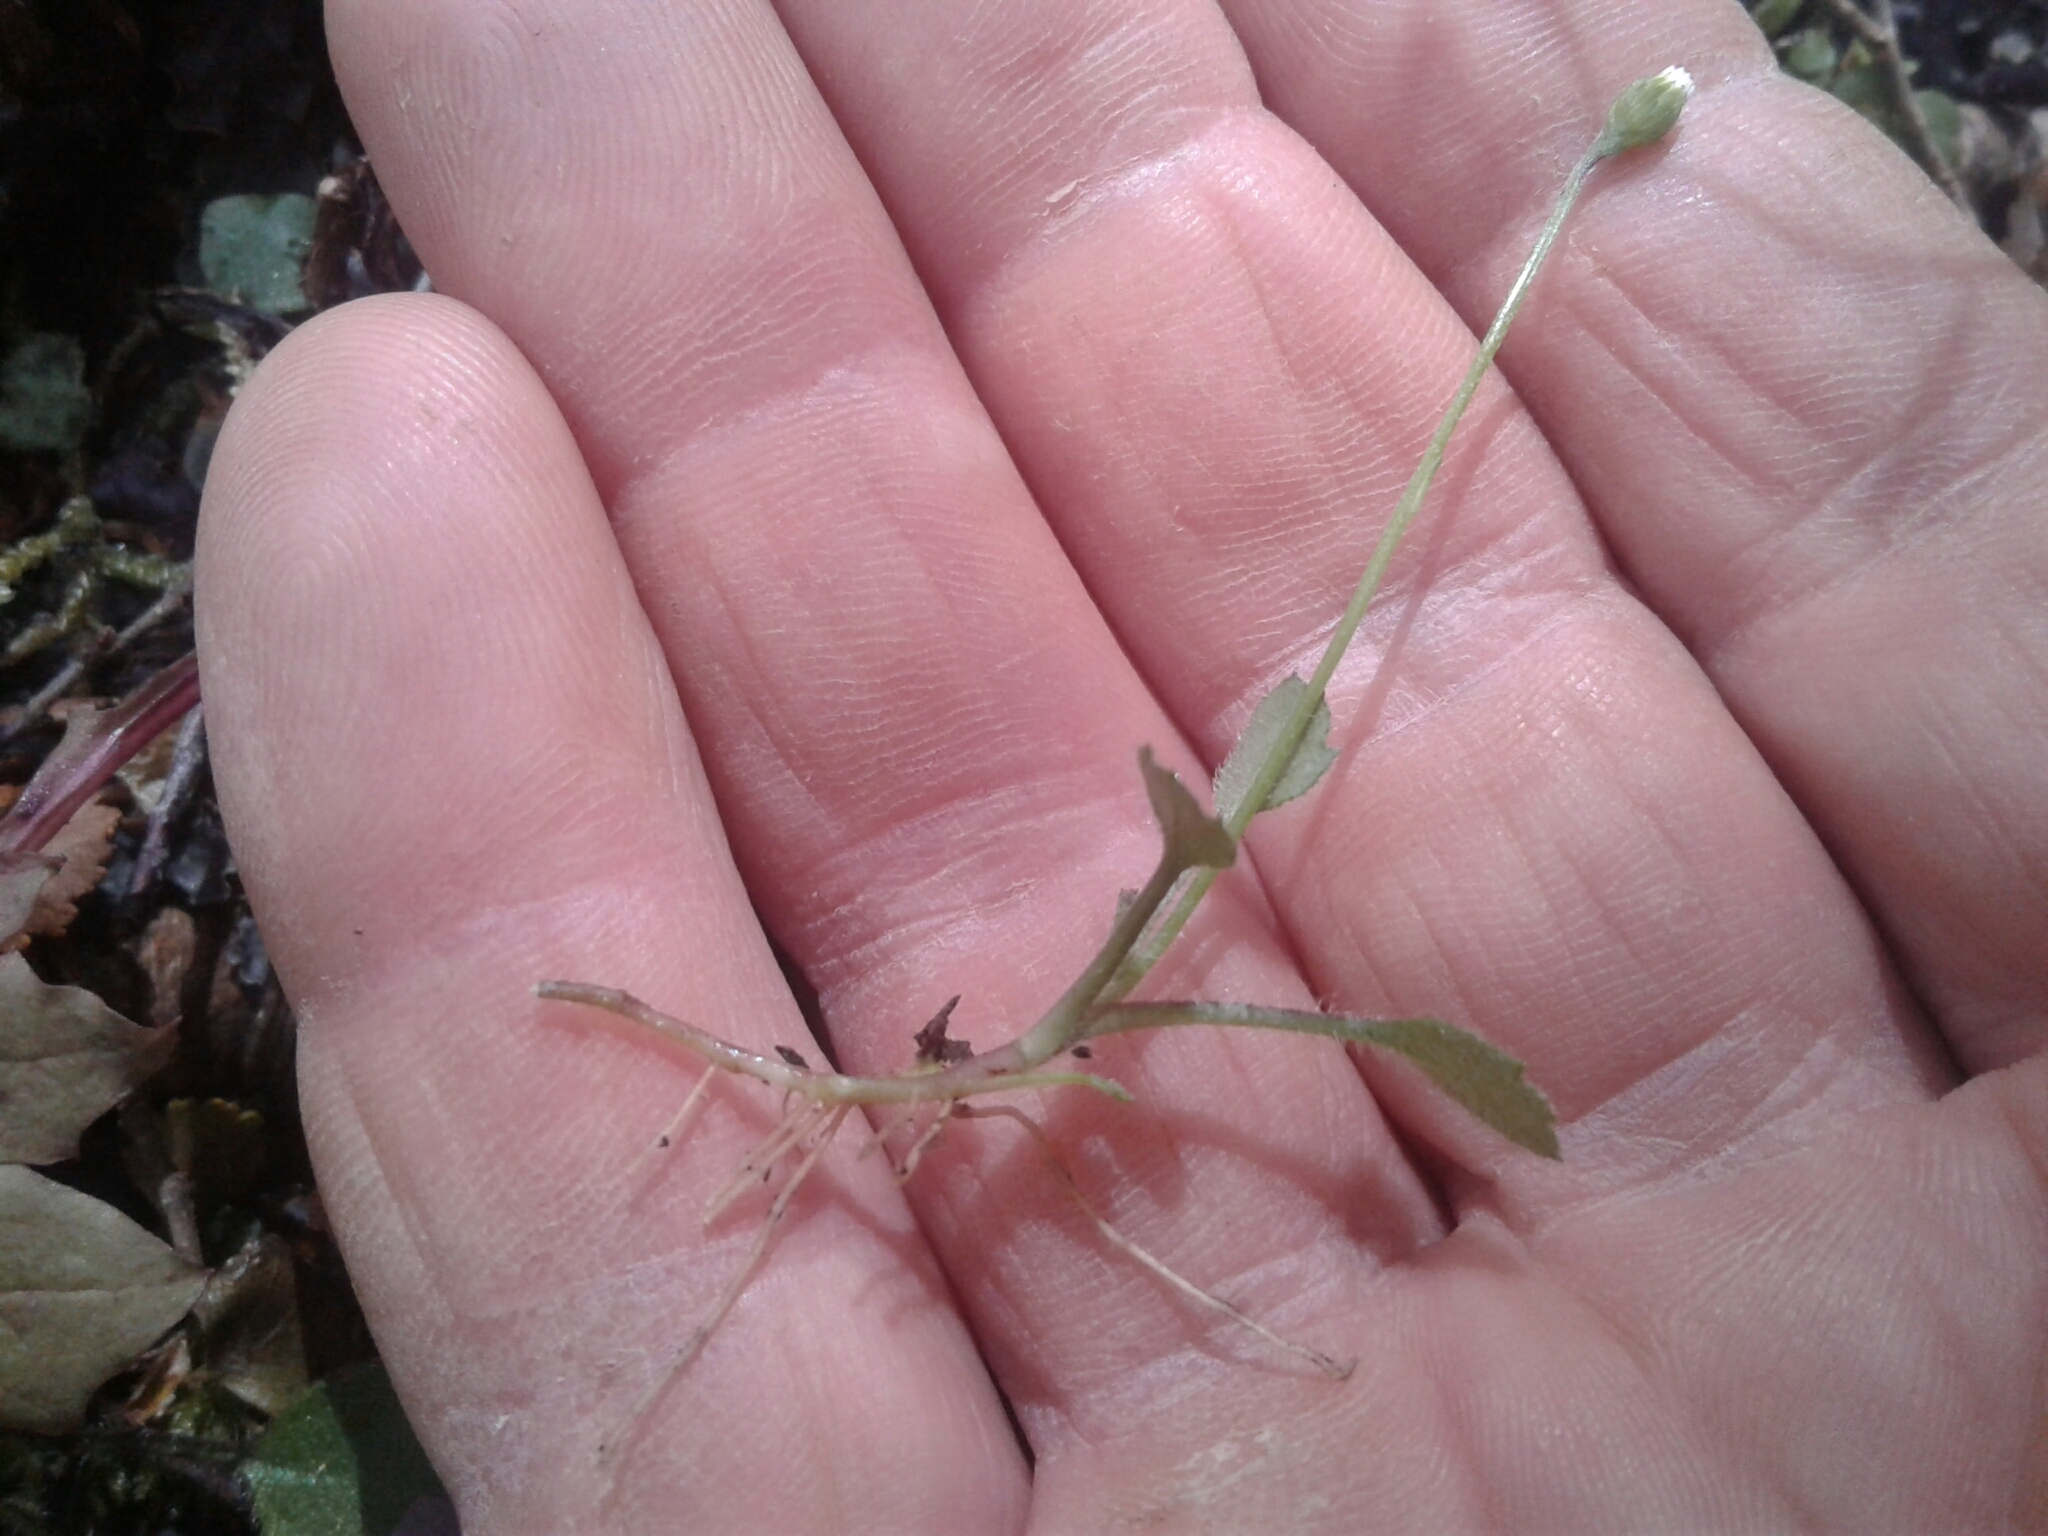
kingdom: Plantae
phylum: Tracheophyta
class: Magnoliopsida
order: Asterales
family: Asteraceae
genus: Lagenophora
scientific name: Lagenophora strangulata
